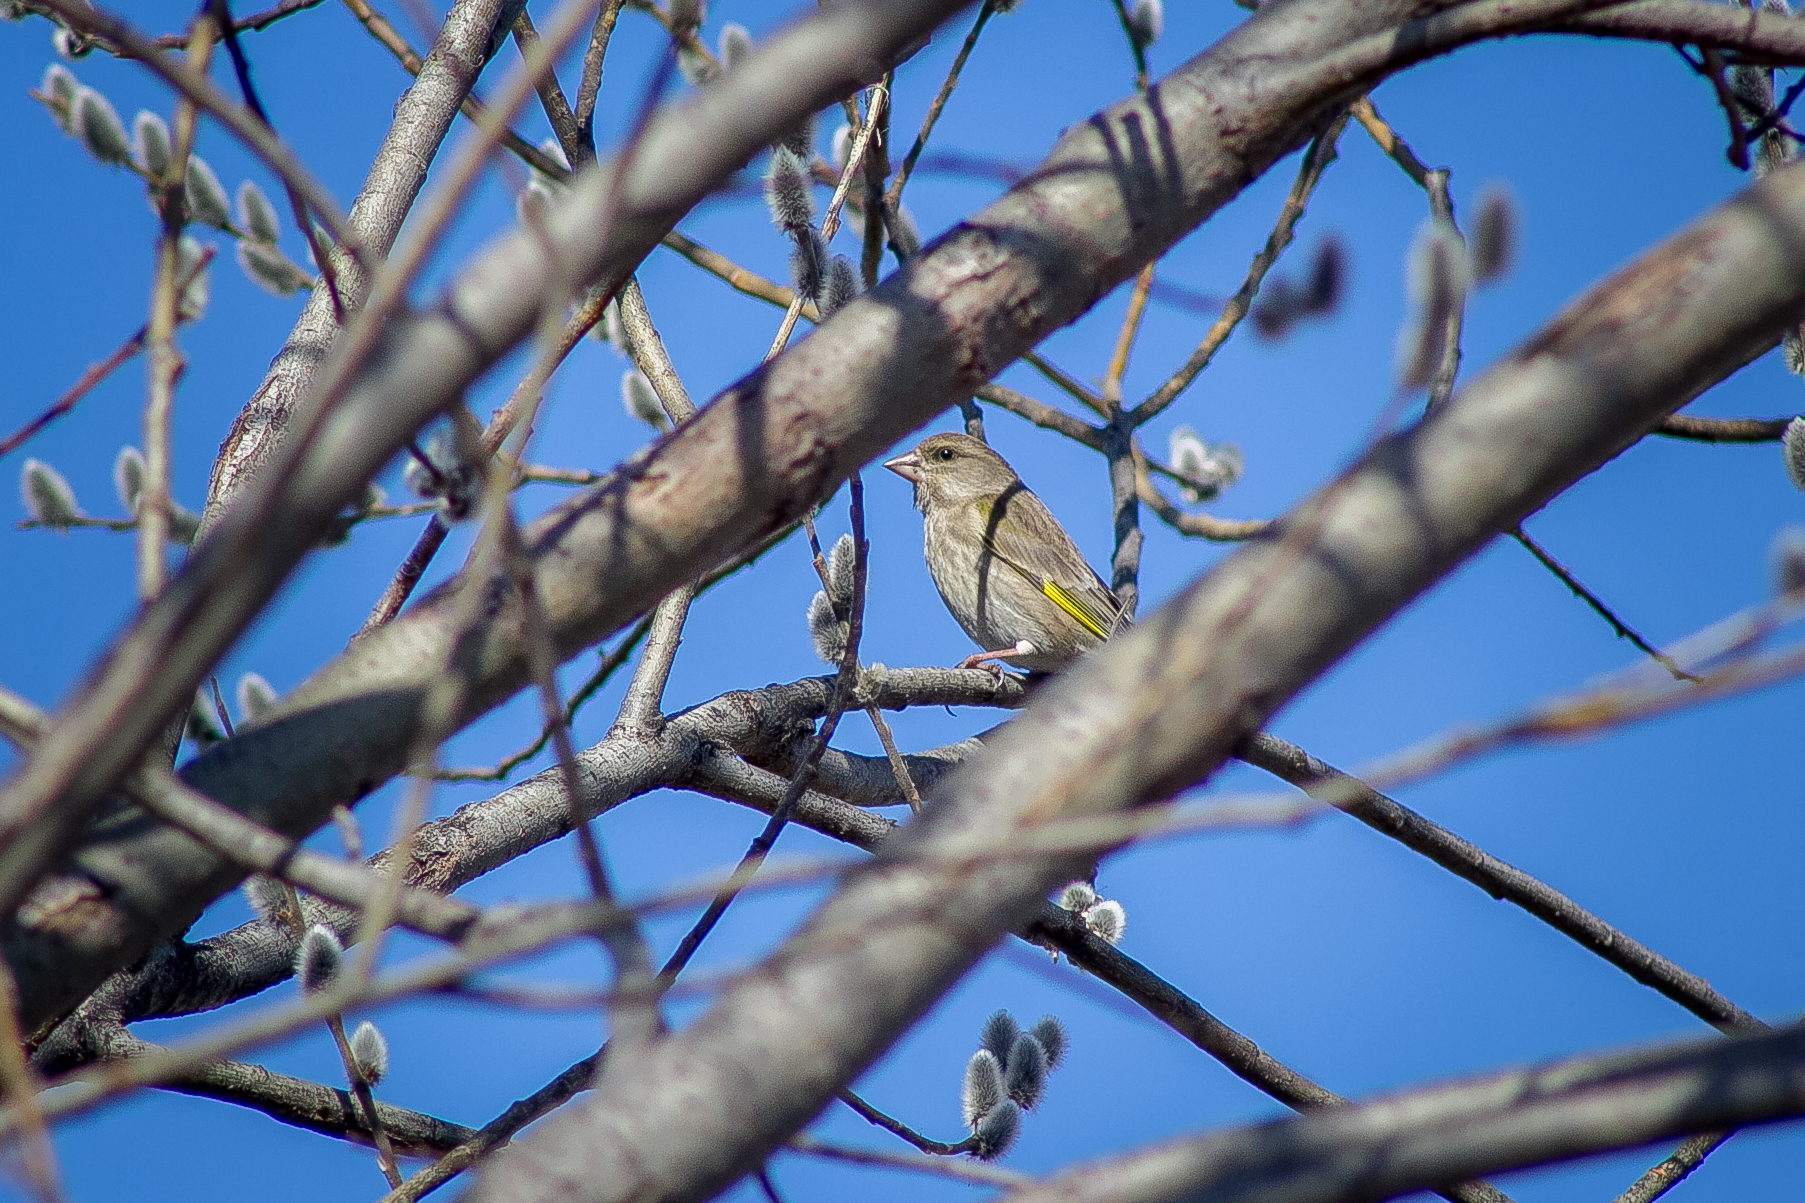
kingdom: Plantae
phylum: Tracheophyta
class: Liliopsida
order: Poales
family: Poaceae
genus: Chloris
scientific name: Chloris chloris
